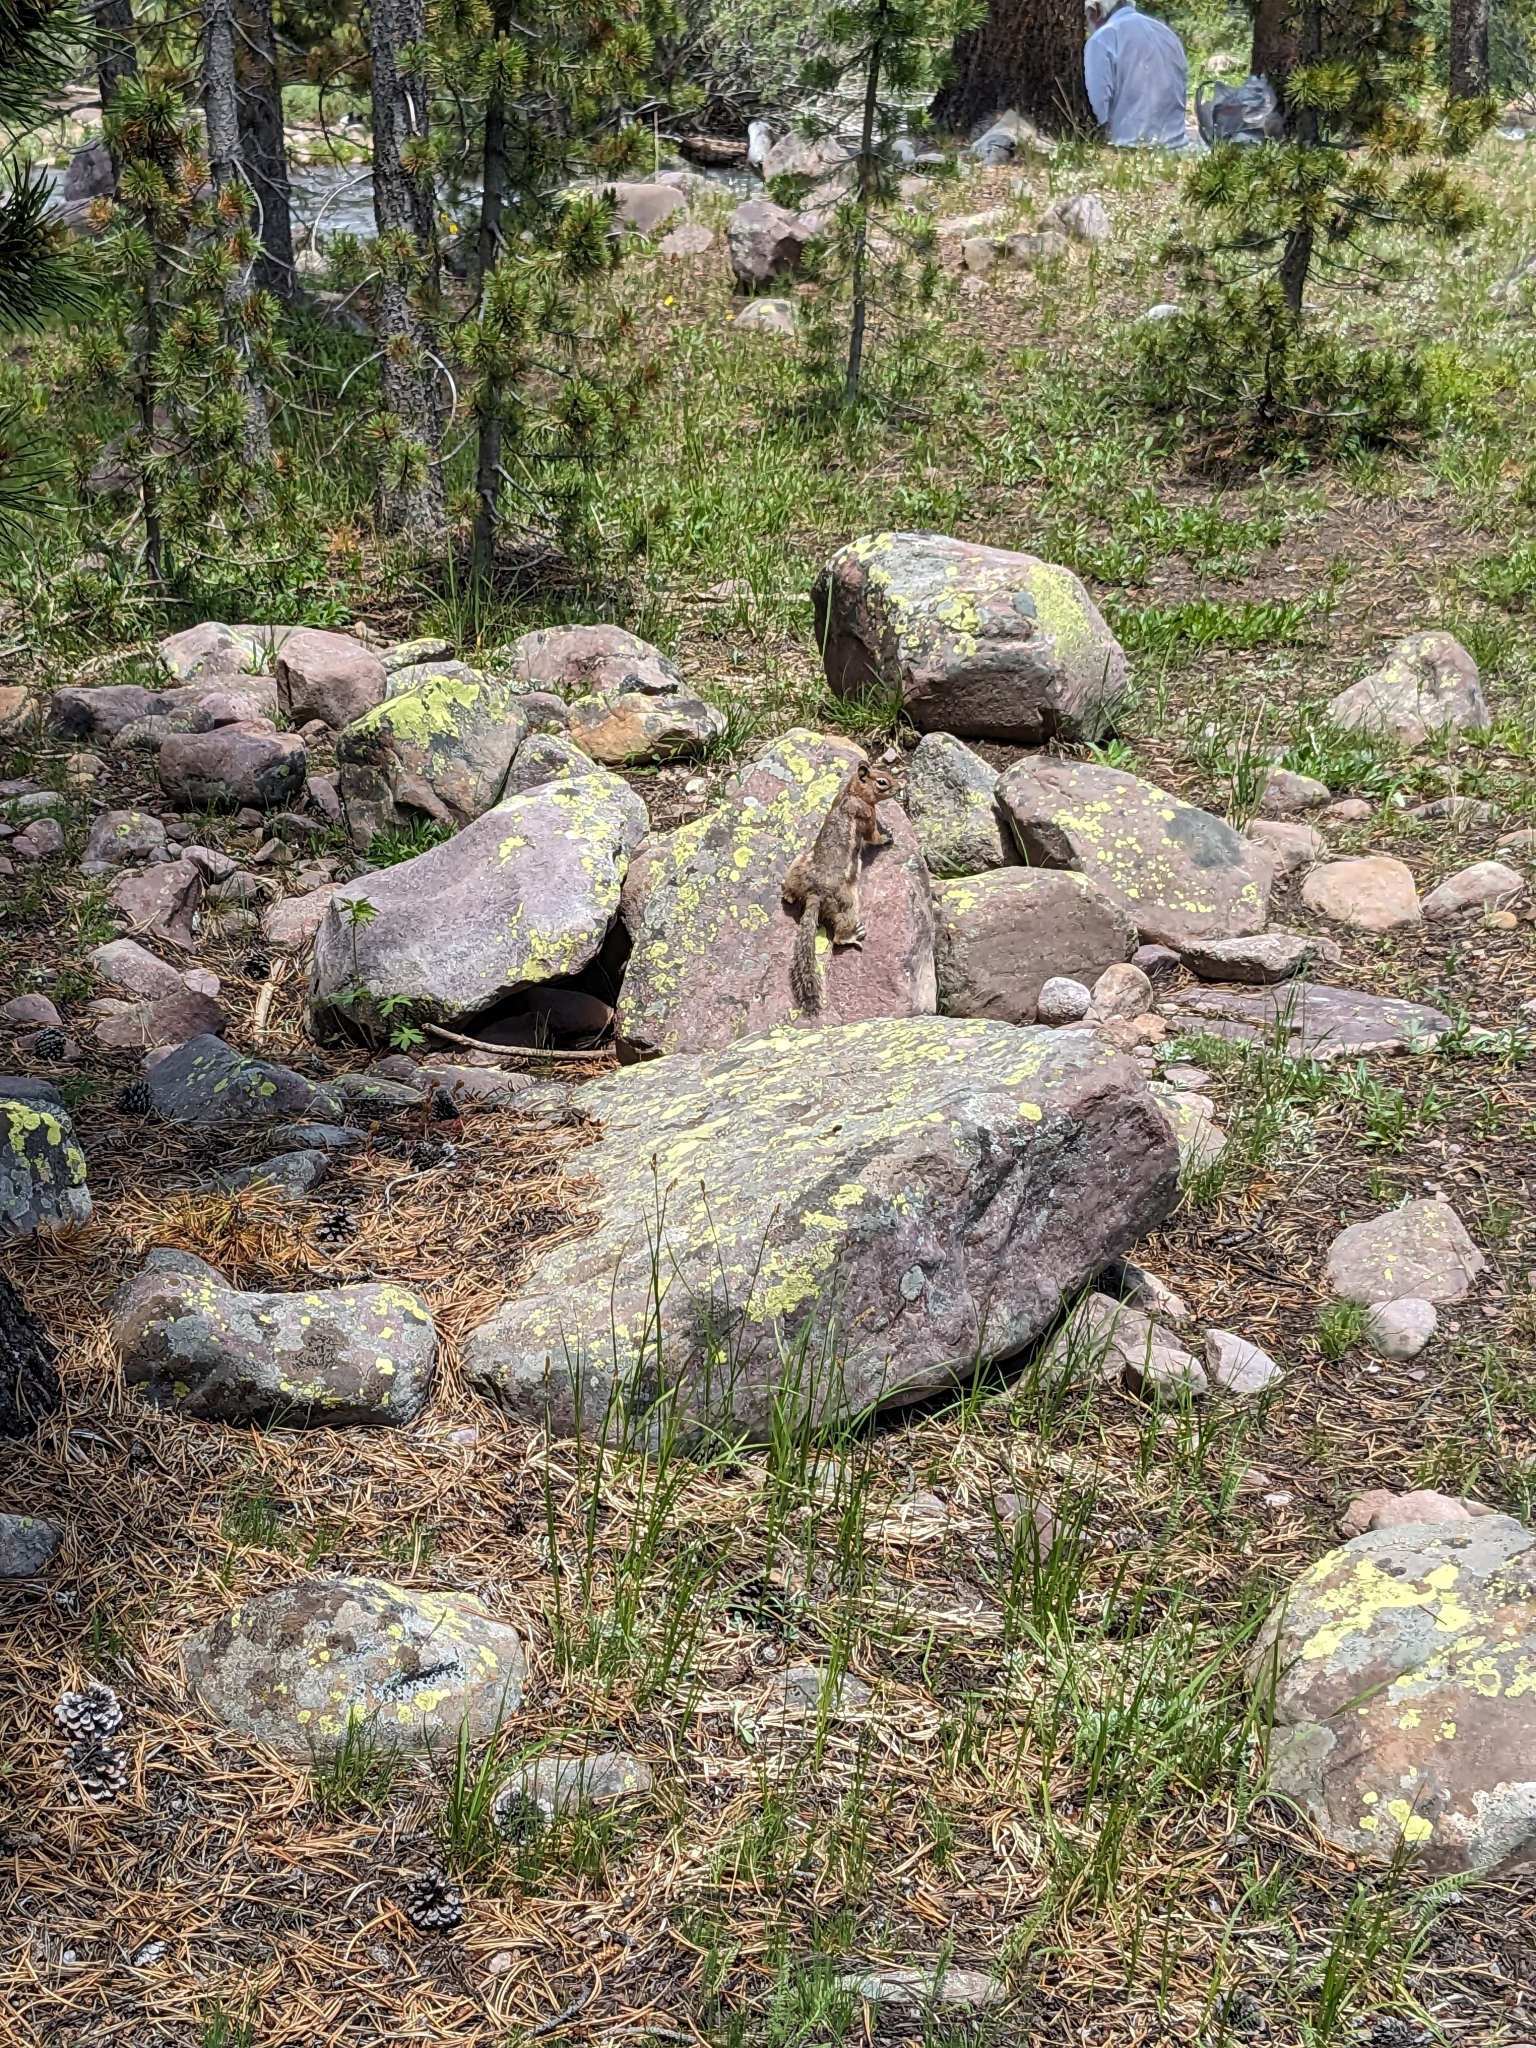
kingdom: Animalia
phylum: Chordata
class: Mammalia
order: Rodentia
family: Sciuridae
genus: Callospermophilus
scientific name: Callospermophilus lateralis
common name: Golden-mantled ground squirrel
